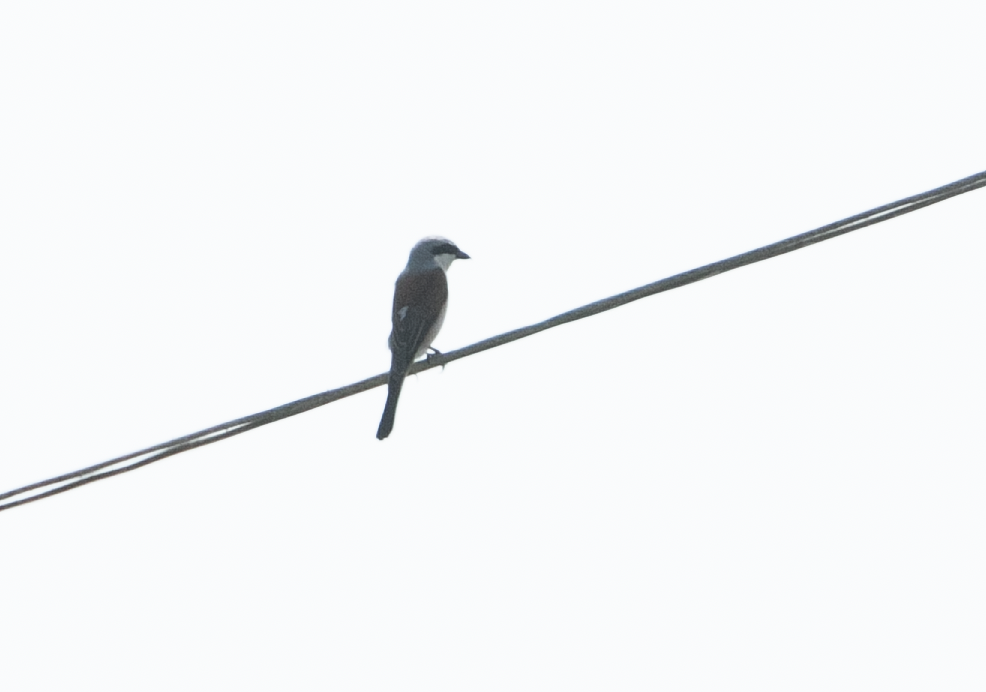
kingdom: Animalia
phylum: Chordata
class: Aves
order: Passeriformes
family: Laniidae
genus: Lanius
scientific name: Lanius collurio
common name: Red-backed shrike
